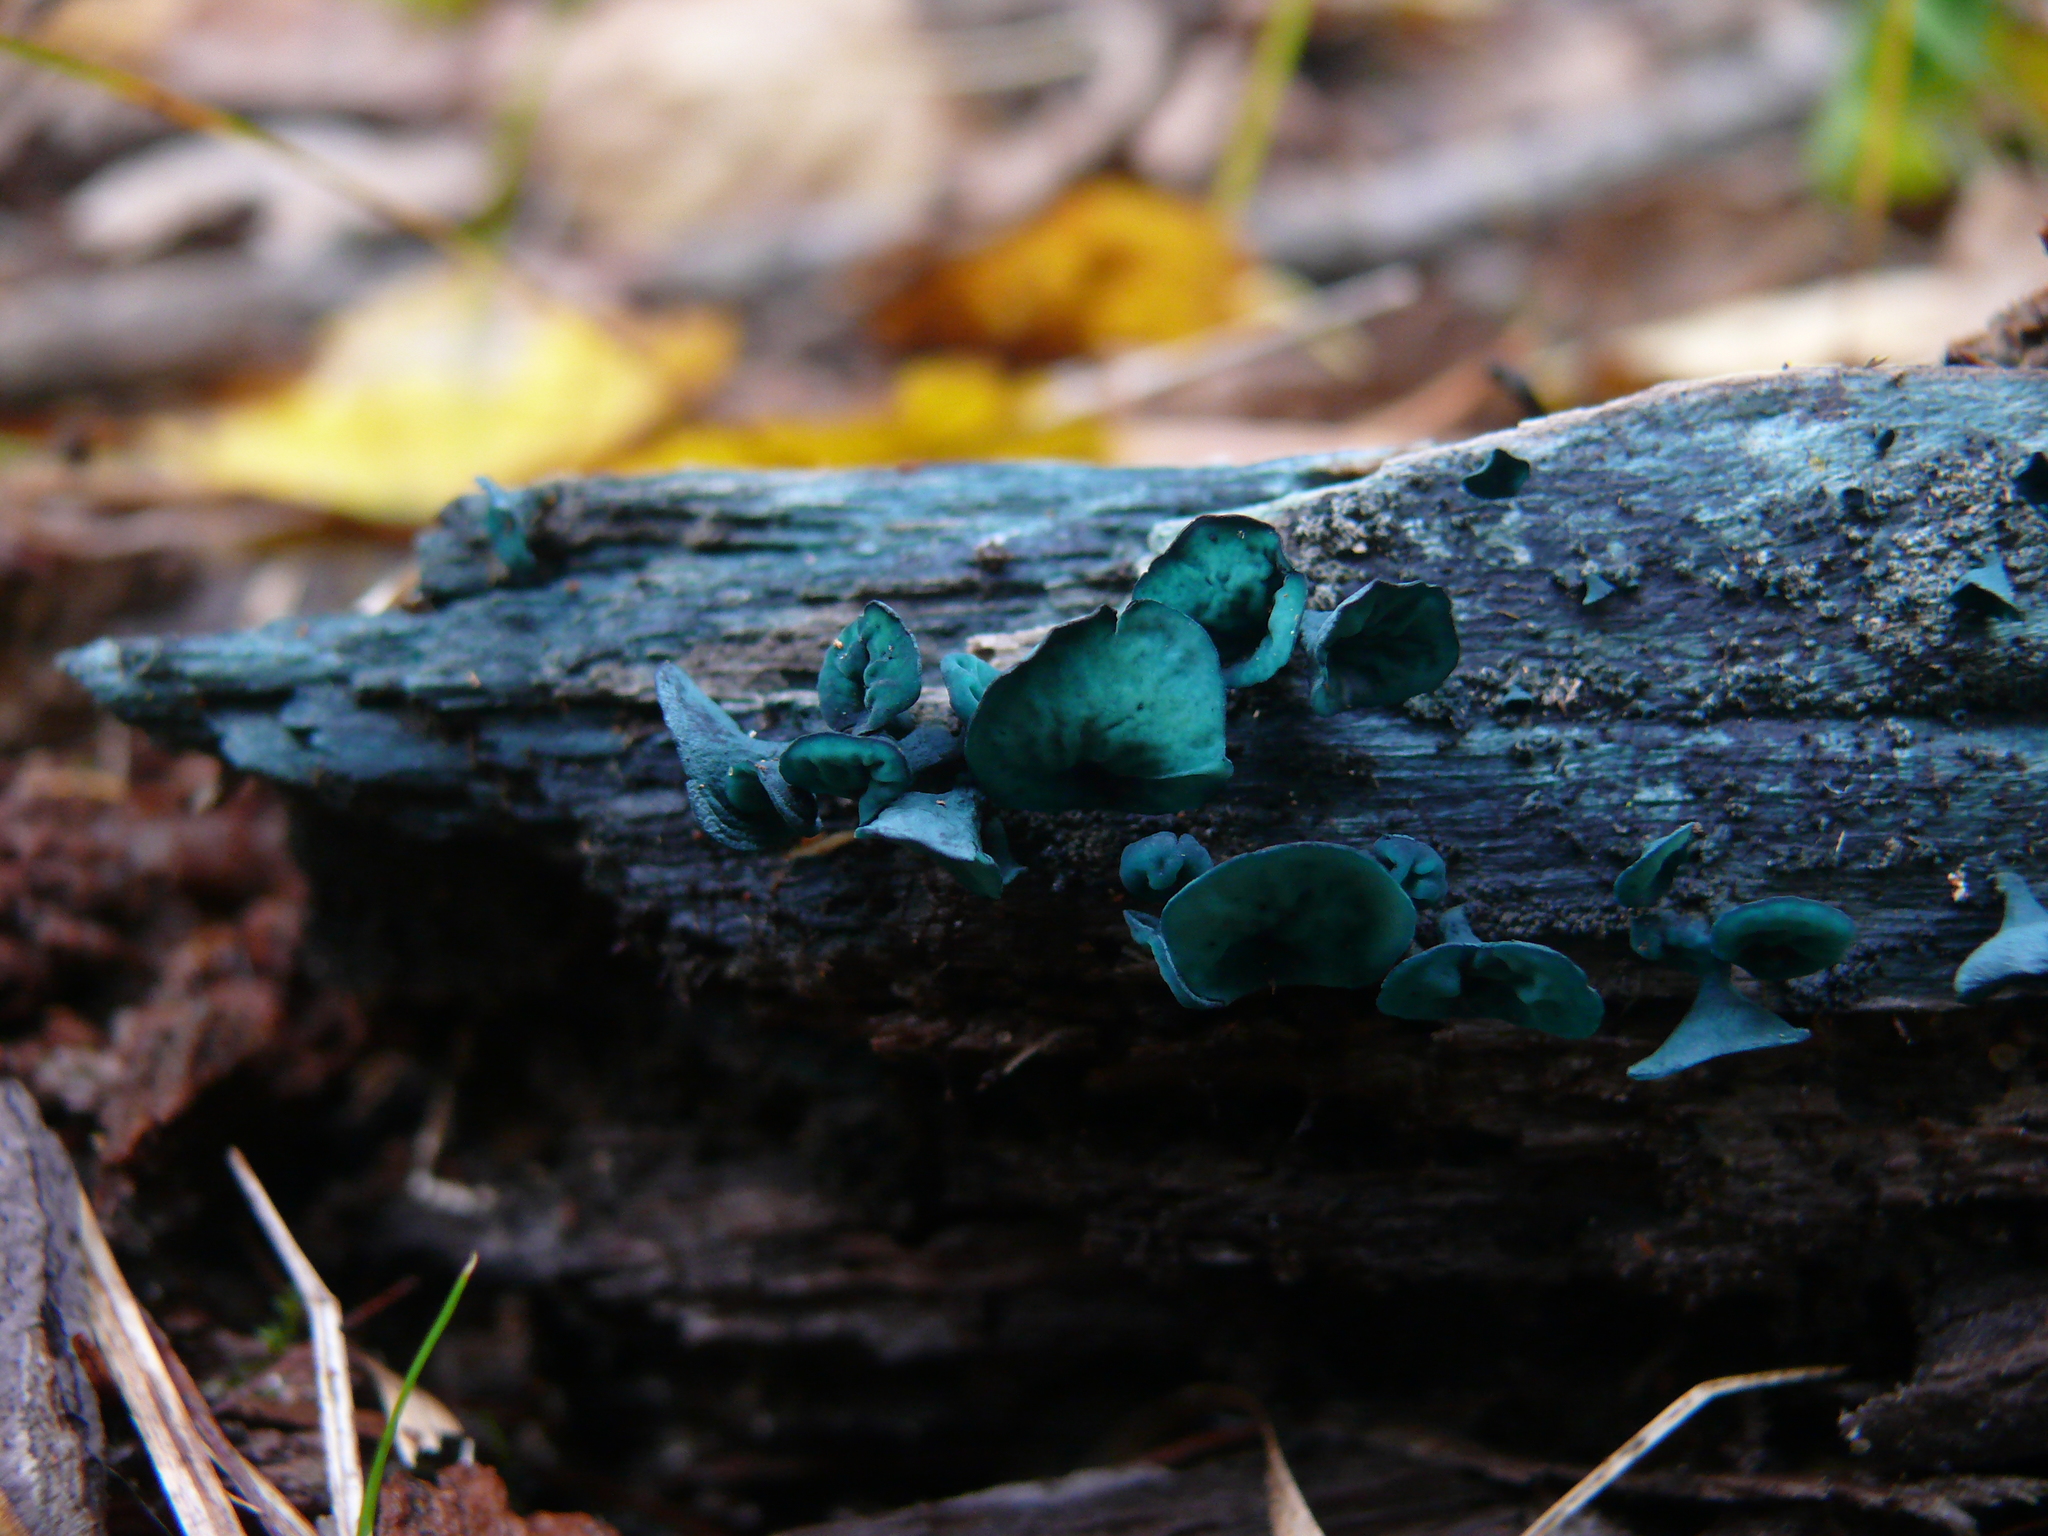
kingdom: Fungi
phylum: Ascomycota
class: Leotiomycetes
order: Helotiales
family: Chlorociboriaceae
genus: Chlorociboria
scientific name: Chlorociboria aeruginascens
